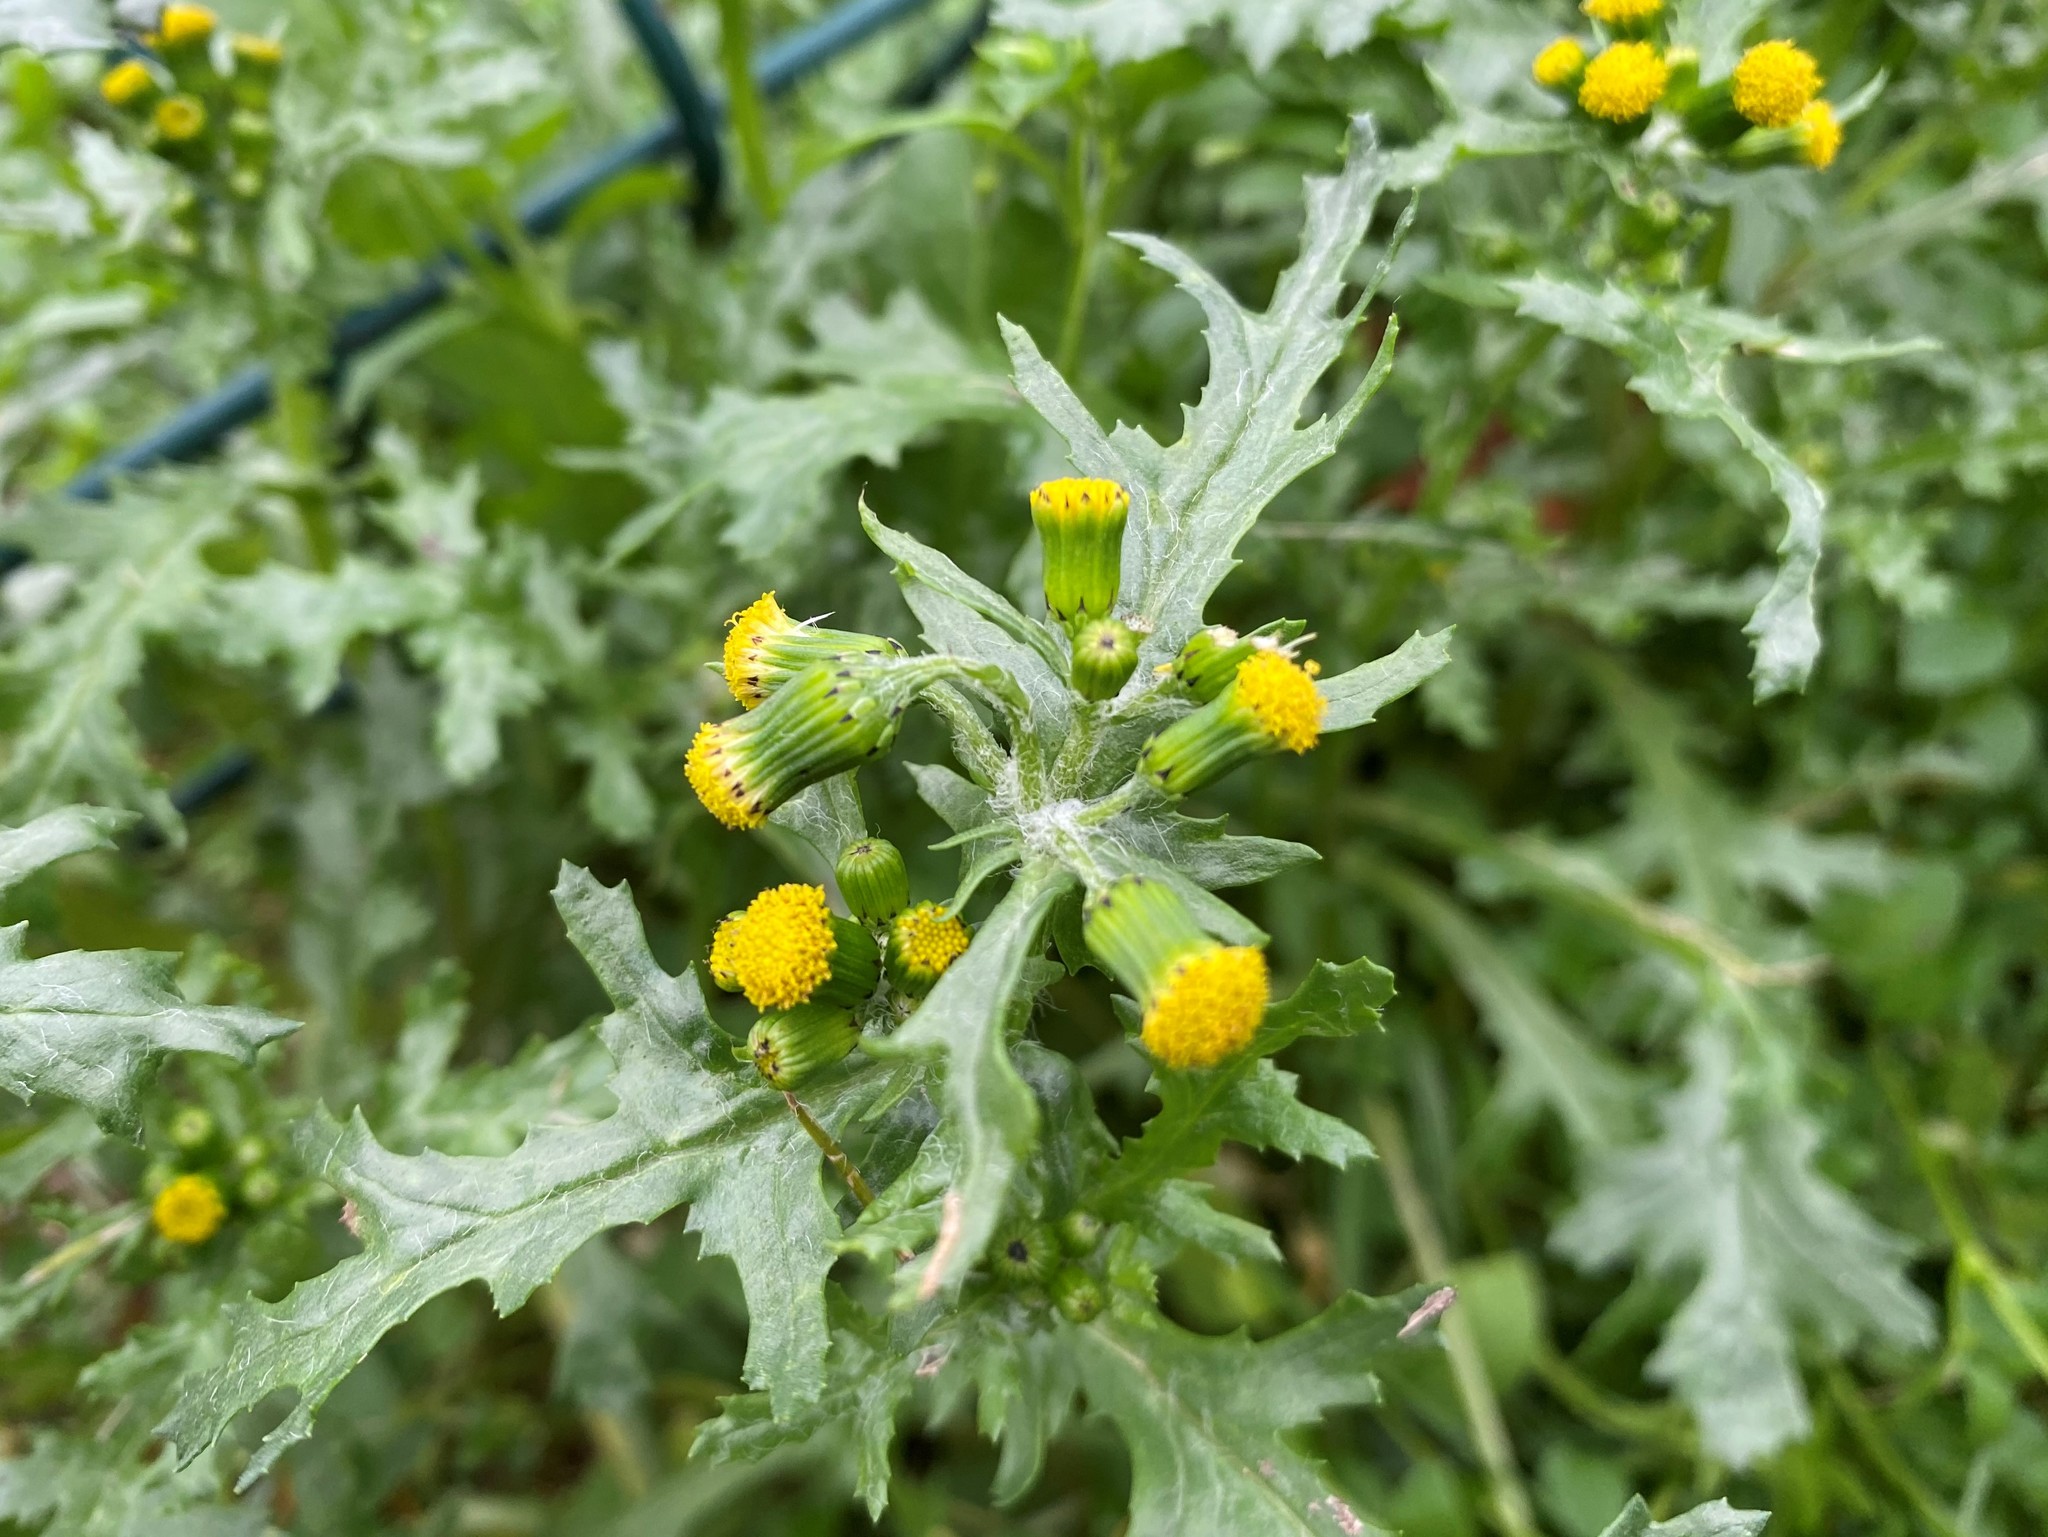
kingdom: Plantae
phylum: Tracheophyta
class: Magnoliopsida
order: Asterales
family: Asteraceae
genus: Senecio
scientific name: Senecio vulgaris
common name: Old-man-in-the-spring
